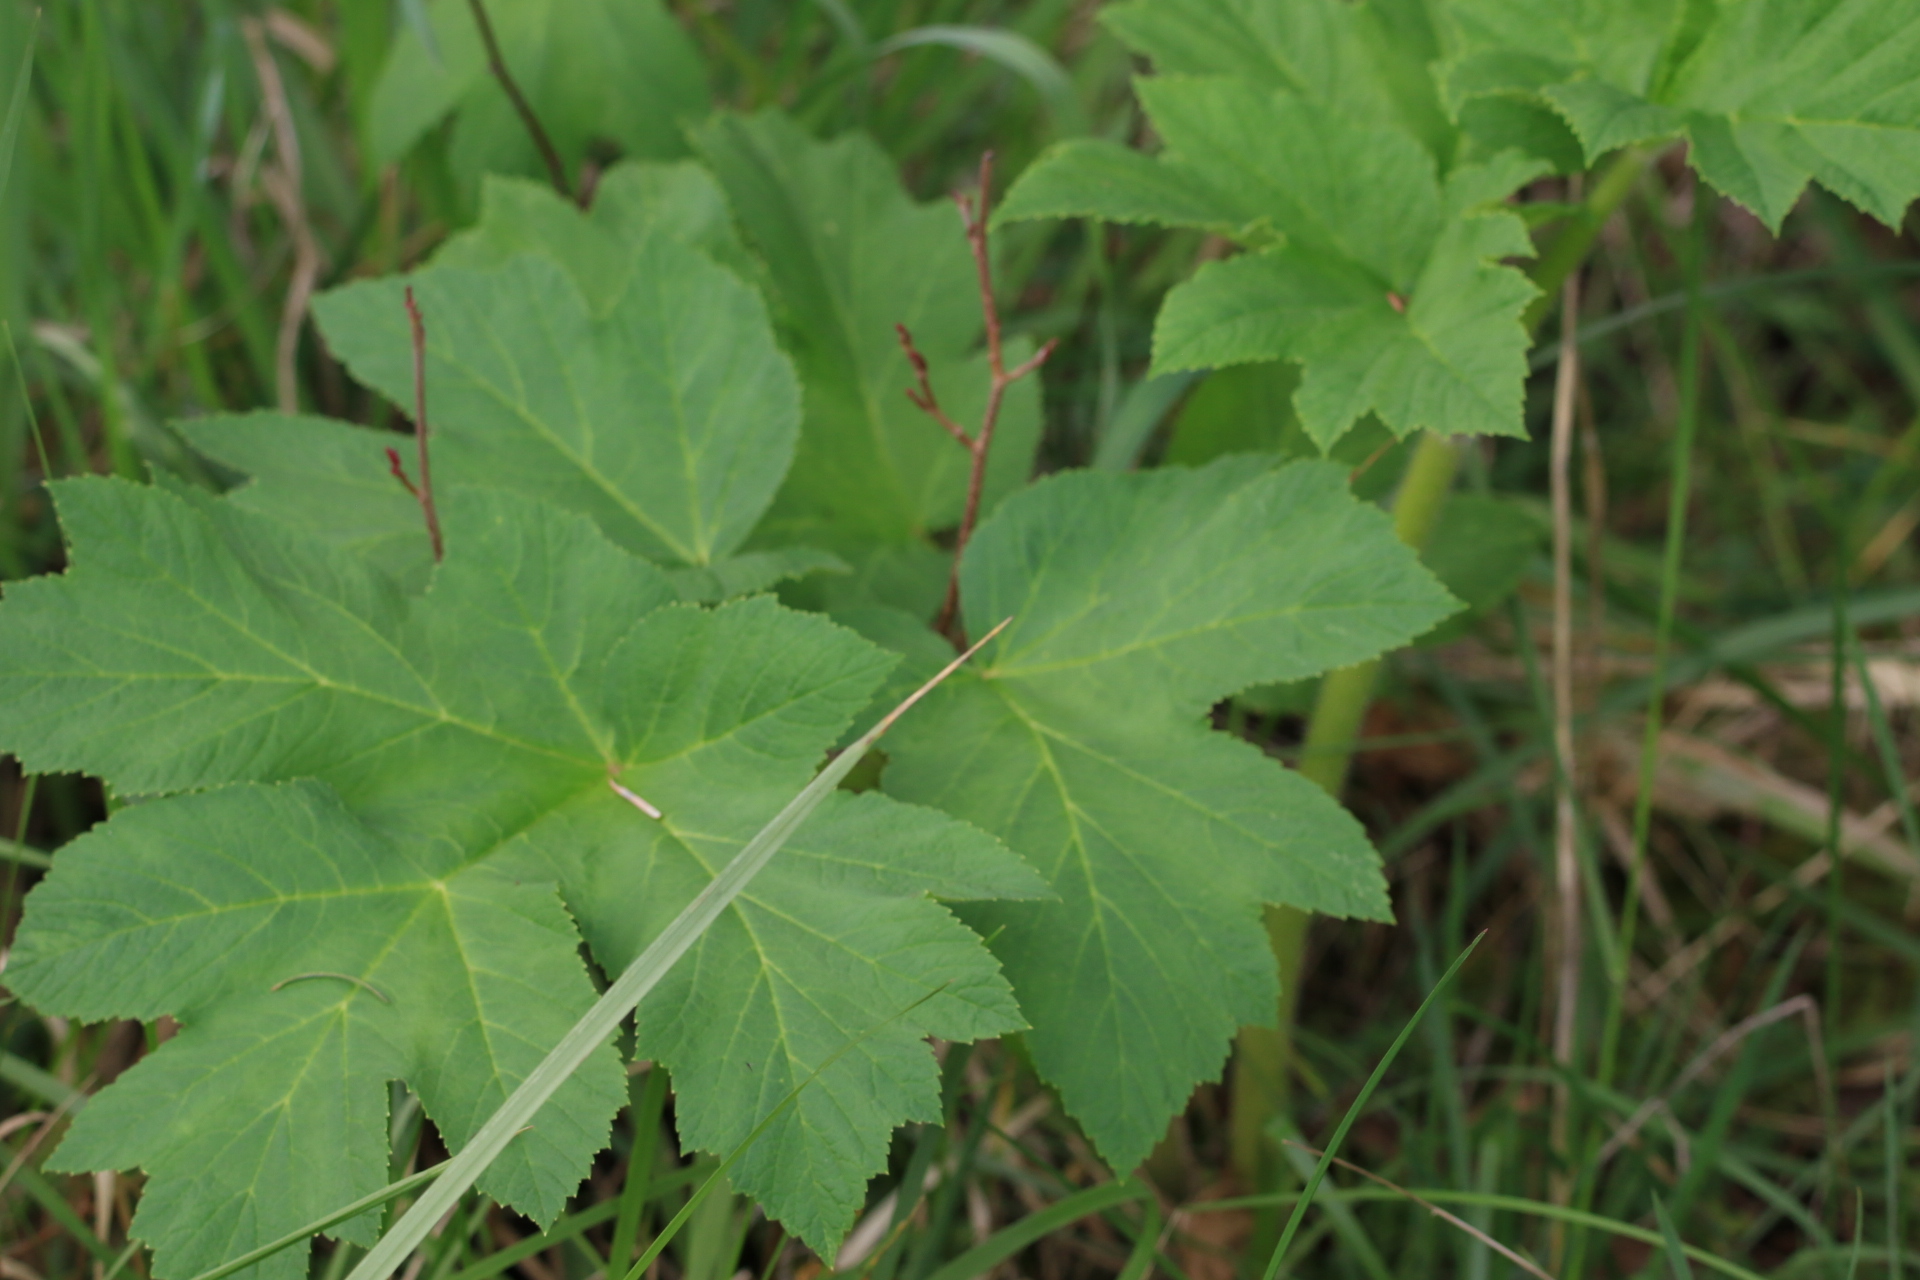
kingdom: Plantae
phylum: Tracheophyta
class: Magnoliopsida
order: Apiales
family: Apiaceae
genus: Heracleum
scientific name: Heracleum maximum
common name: American cow parsnip
